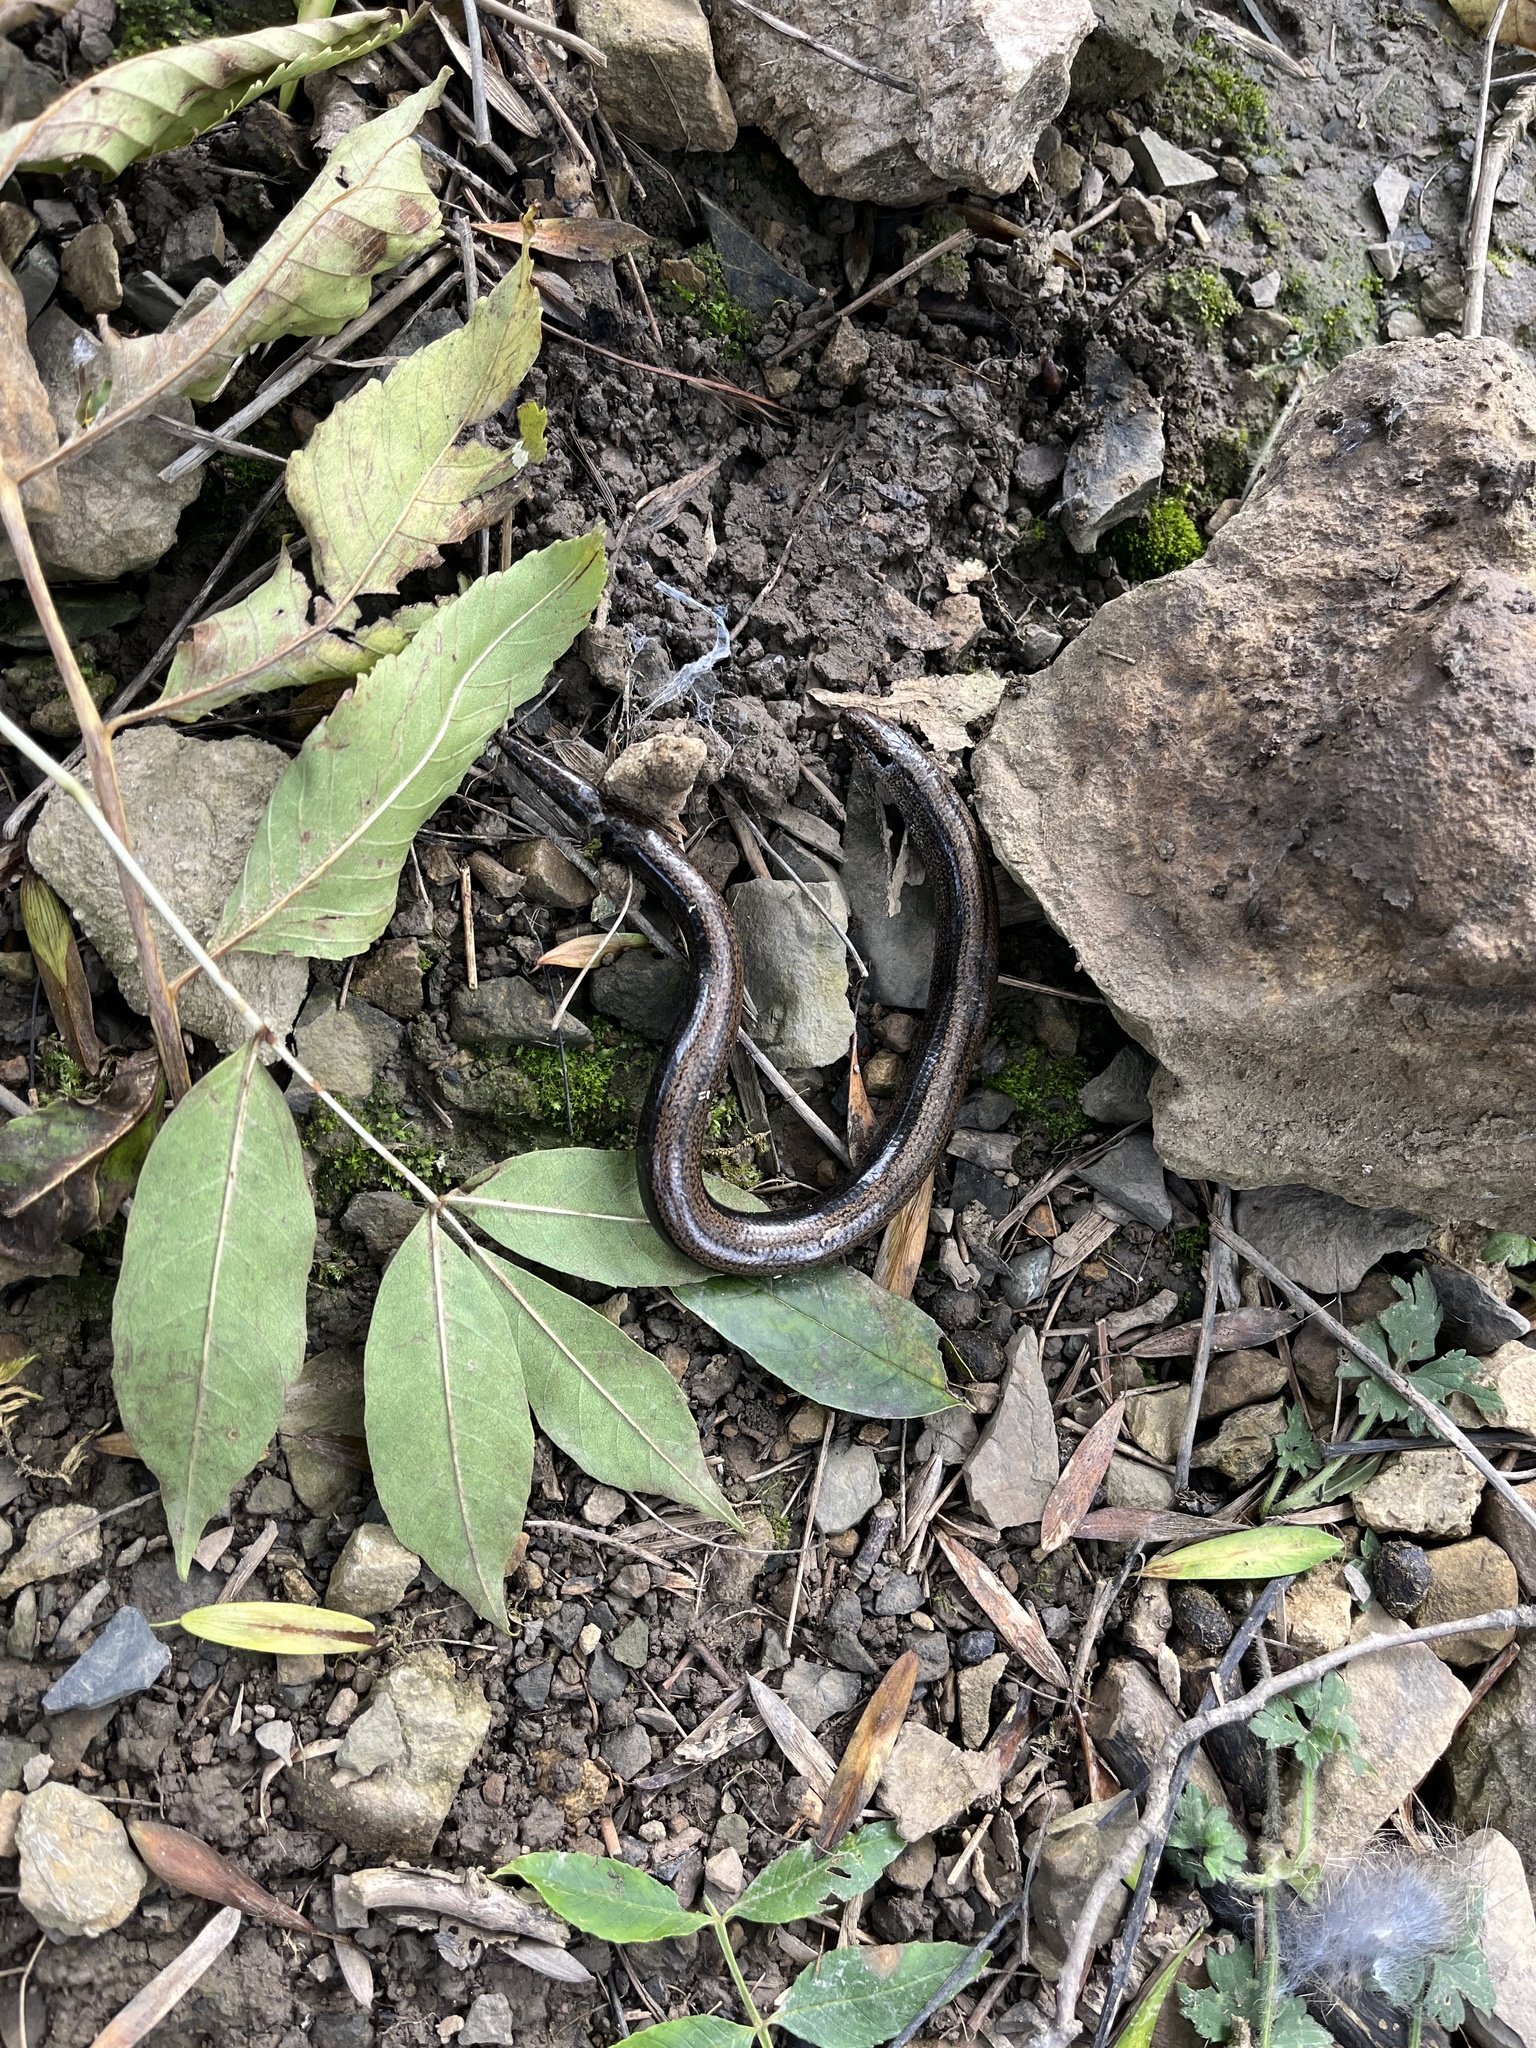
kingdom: Animalia
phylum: Chordata
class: Squamata
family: Anguidae
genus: Anguis
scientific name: Anguis fragilis
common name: Slow worm
